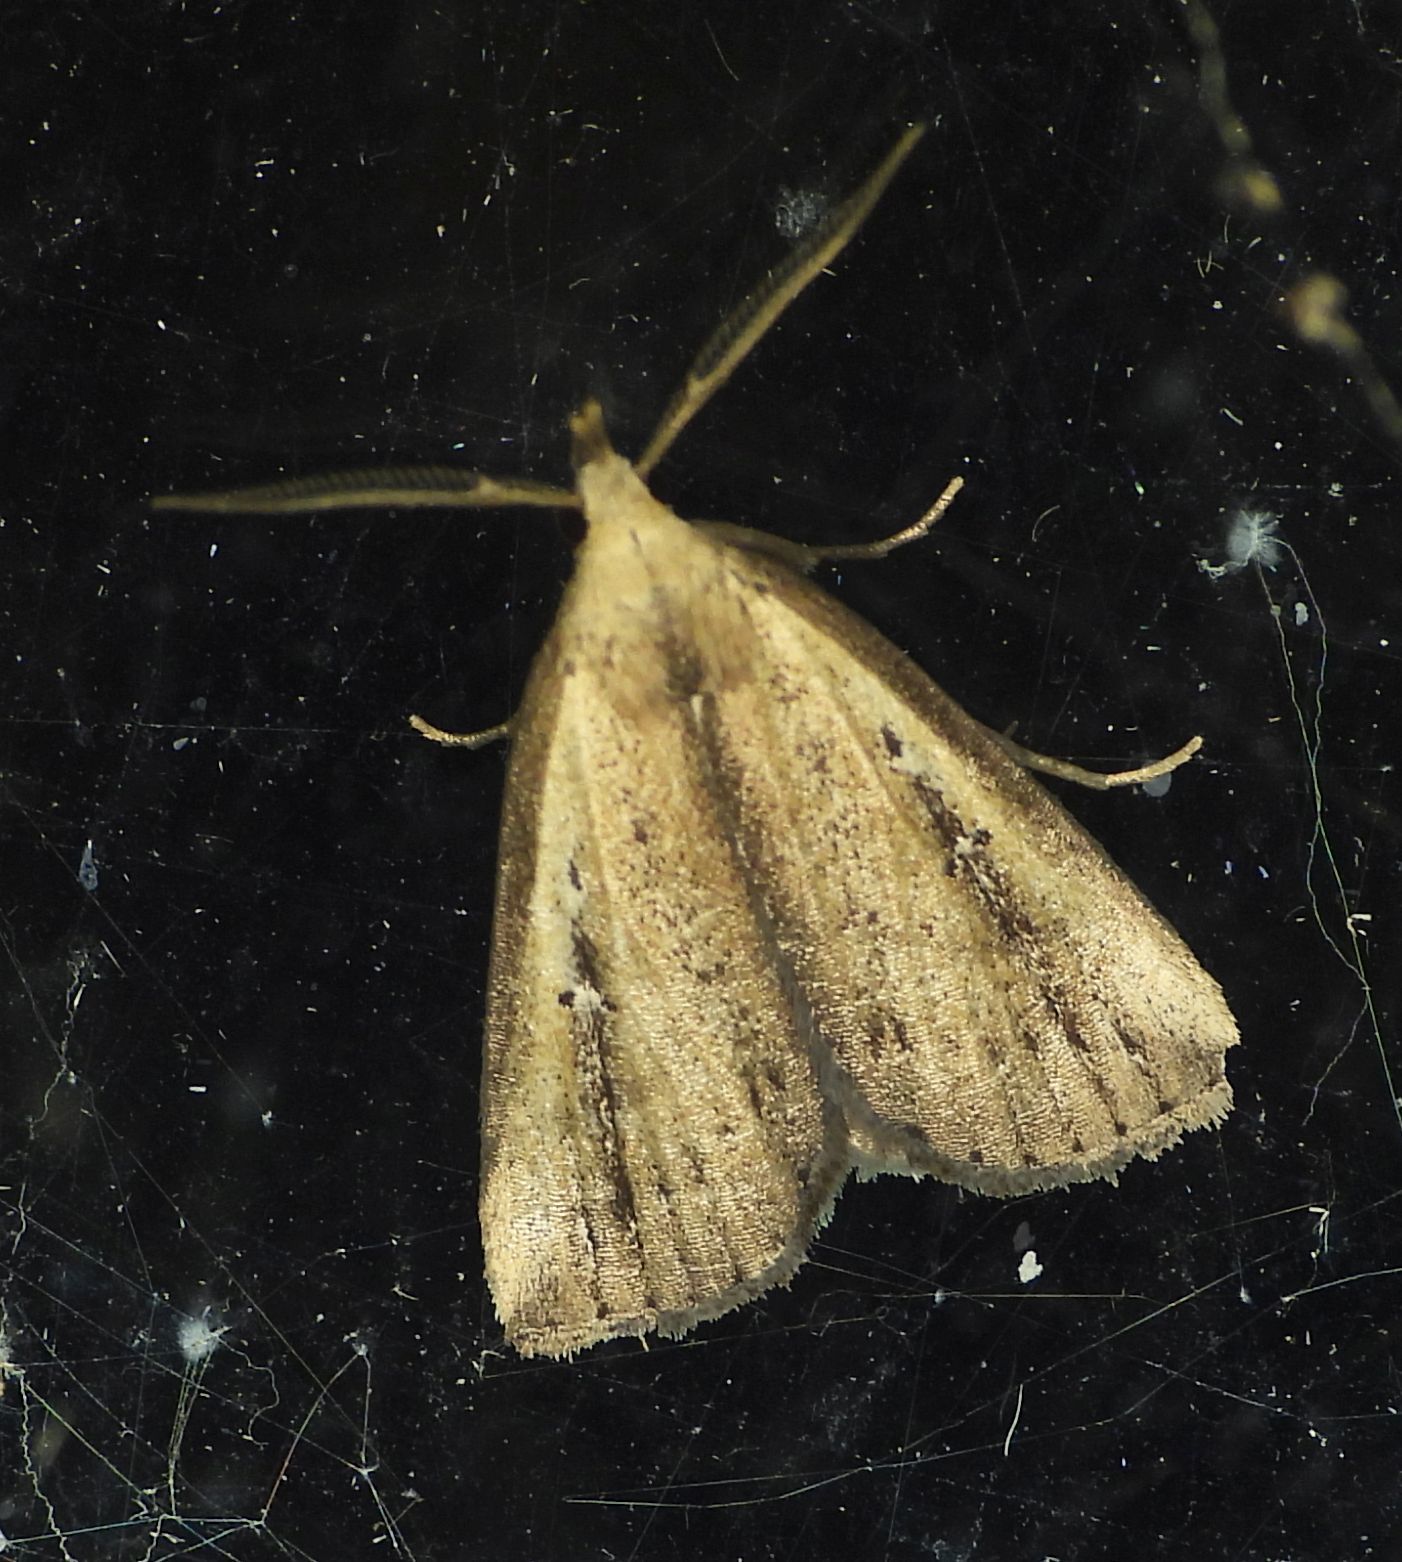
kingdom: Animalia
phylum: Arthropoda
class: Insecta
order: Lepidoptera
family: Erebidae
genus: Macrochilo
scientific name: Macrochilo orciferalis
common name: Bronzy owlet
